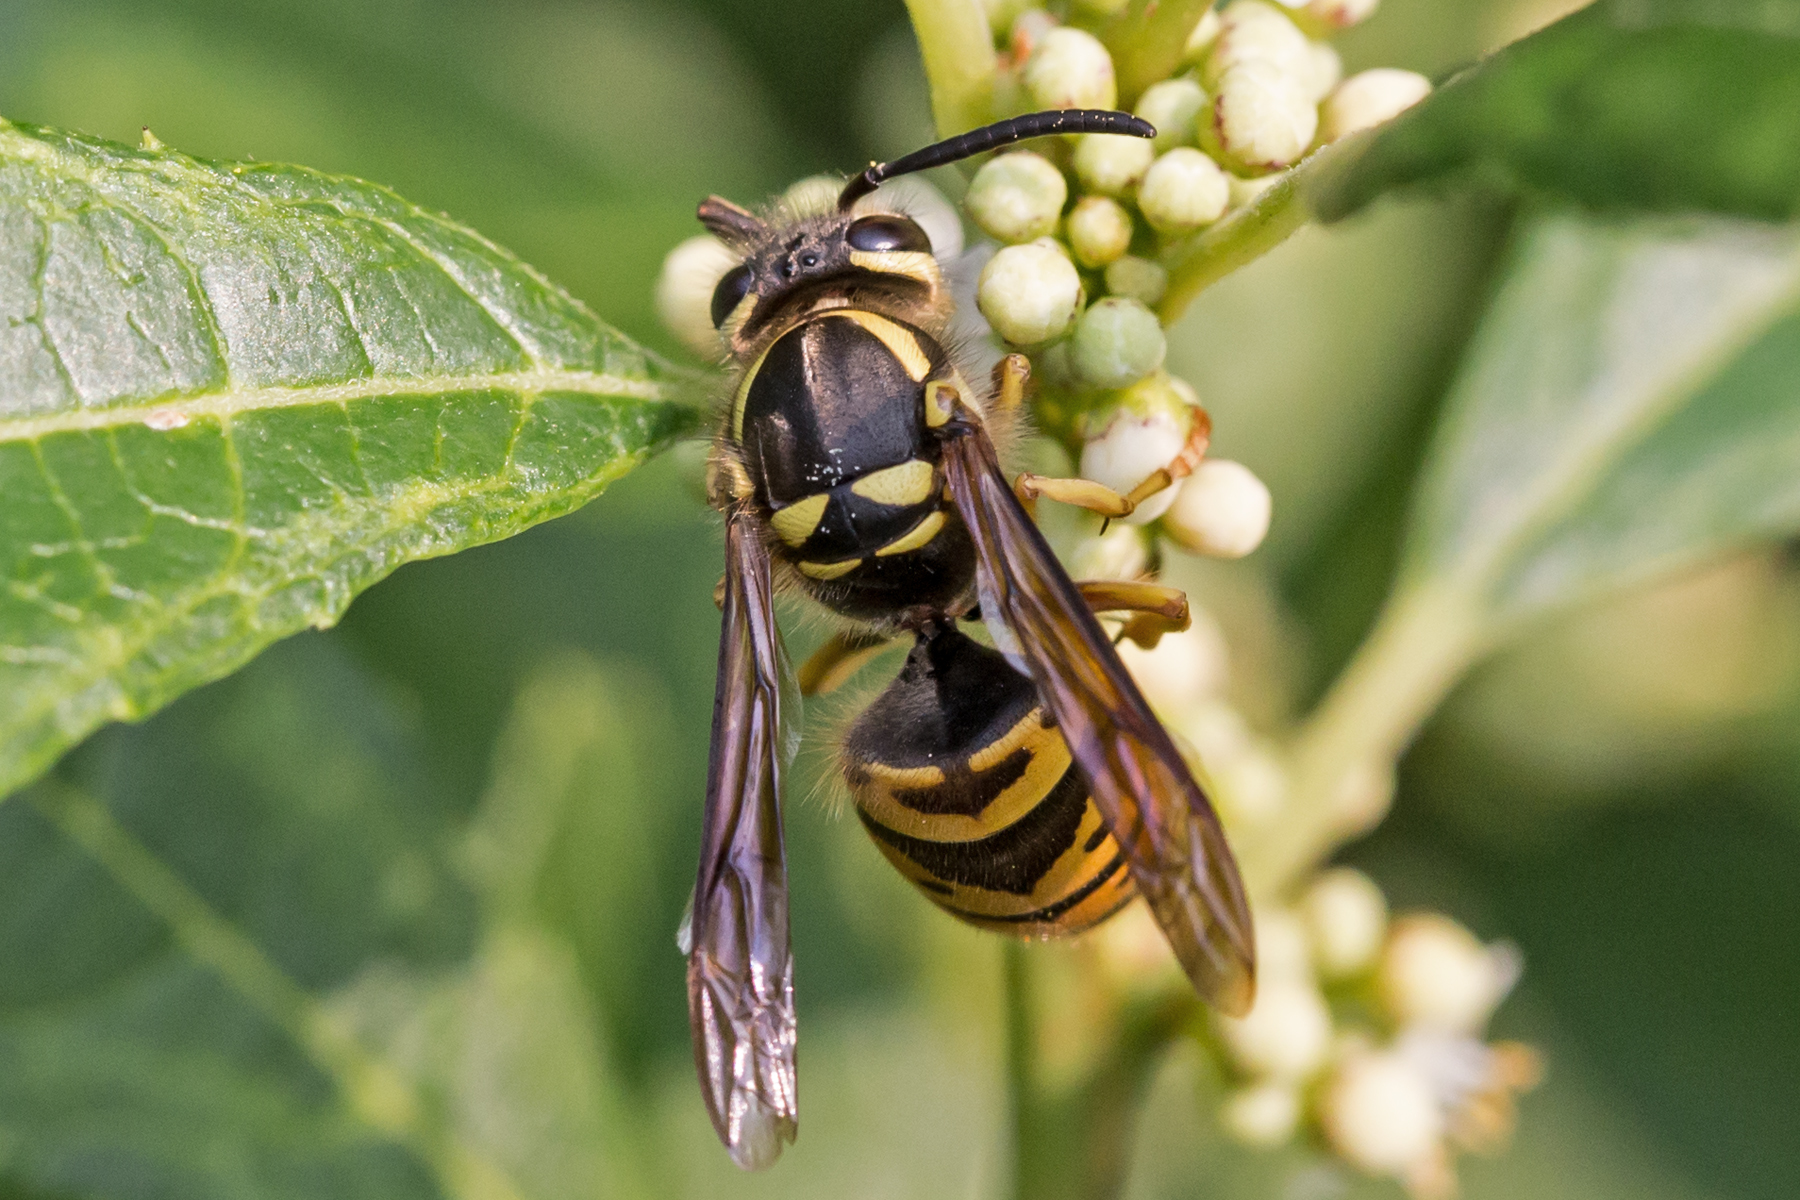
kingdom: Animalia
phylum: Arthropoda
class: Insecta
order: Hymenoptera
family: Vespidae
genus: Vespula
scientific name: Vespula maculifrons
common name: Eastern yellowjacket
